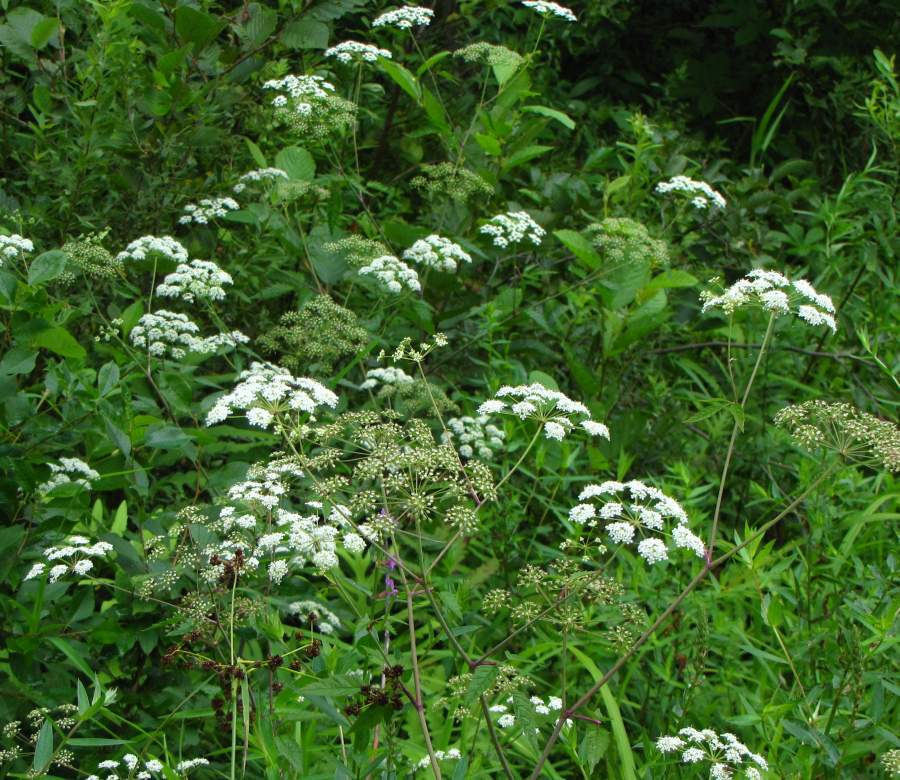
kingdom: Plantae
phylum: Tracheophyta
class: Magnoliopsida
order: Apiales
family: Apiaceae
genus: Cicuta
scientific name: Cicuta maculata
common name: Spotted cowbane
